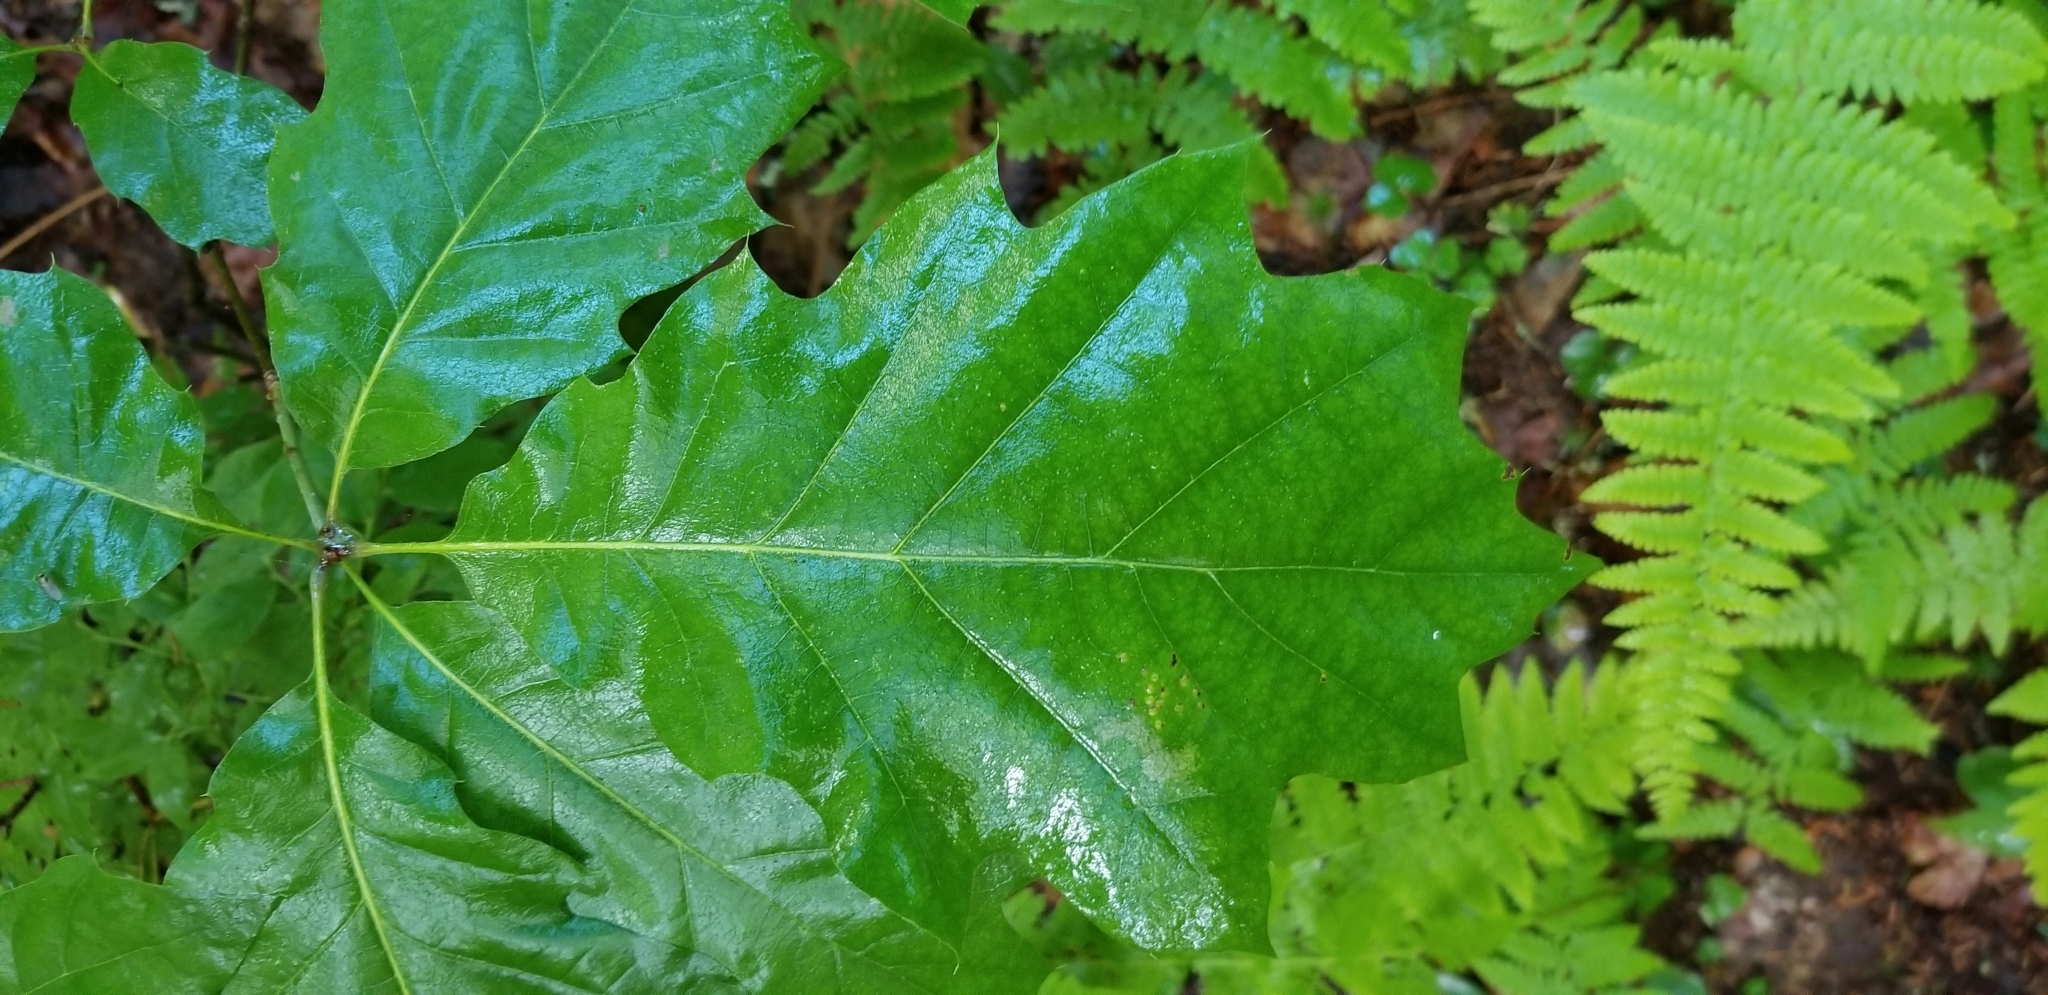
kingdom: Plantae
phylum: Tracheophyta
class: Magnoliopsida
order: Fagales
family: Fagaceae
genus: Quercus
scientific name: Quercus rubra
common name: Red oak
